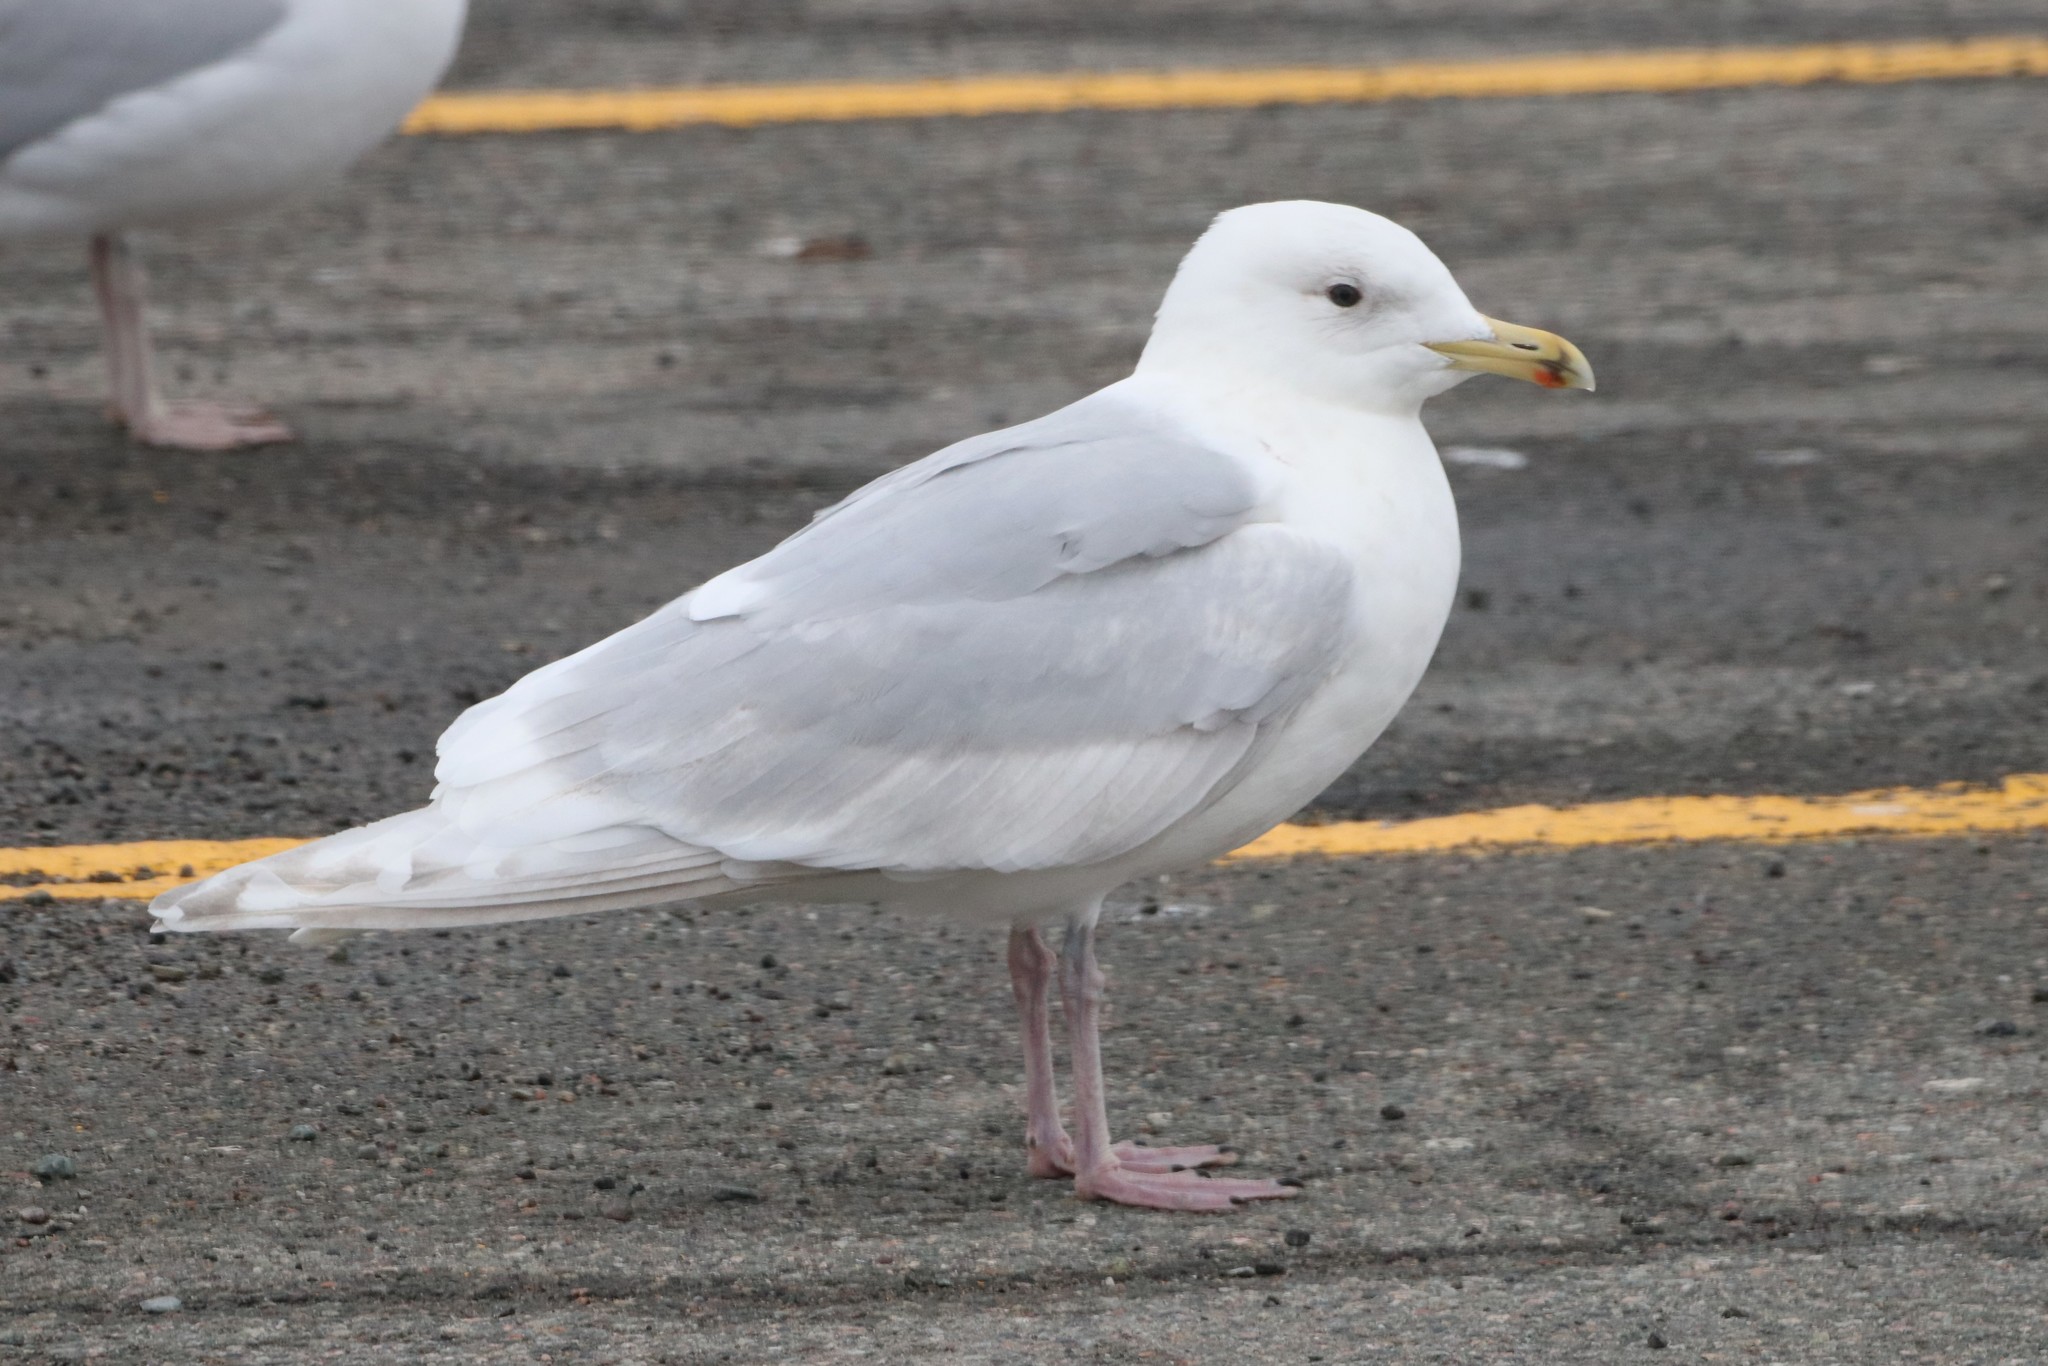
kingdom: Animalia
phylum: Chordata
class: Aves
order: Charadriiformes
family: Laridae
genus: Larus
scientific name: Larus glaucoides
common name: Iceland gull
